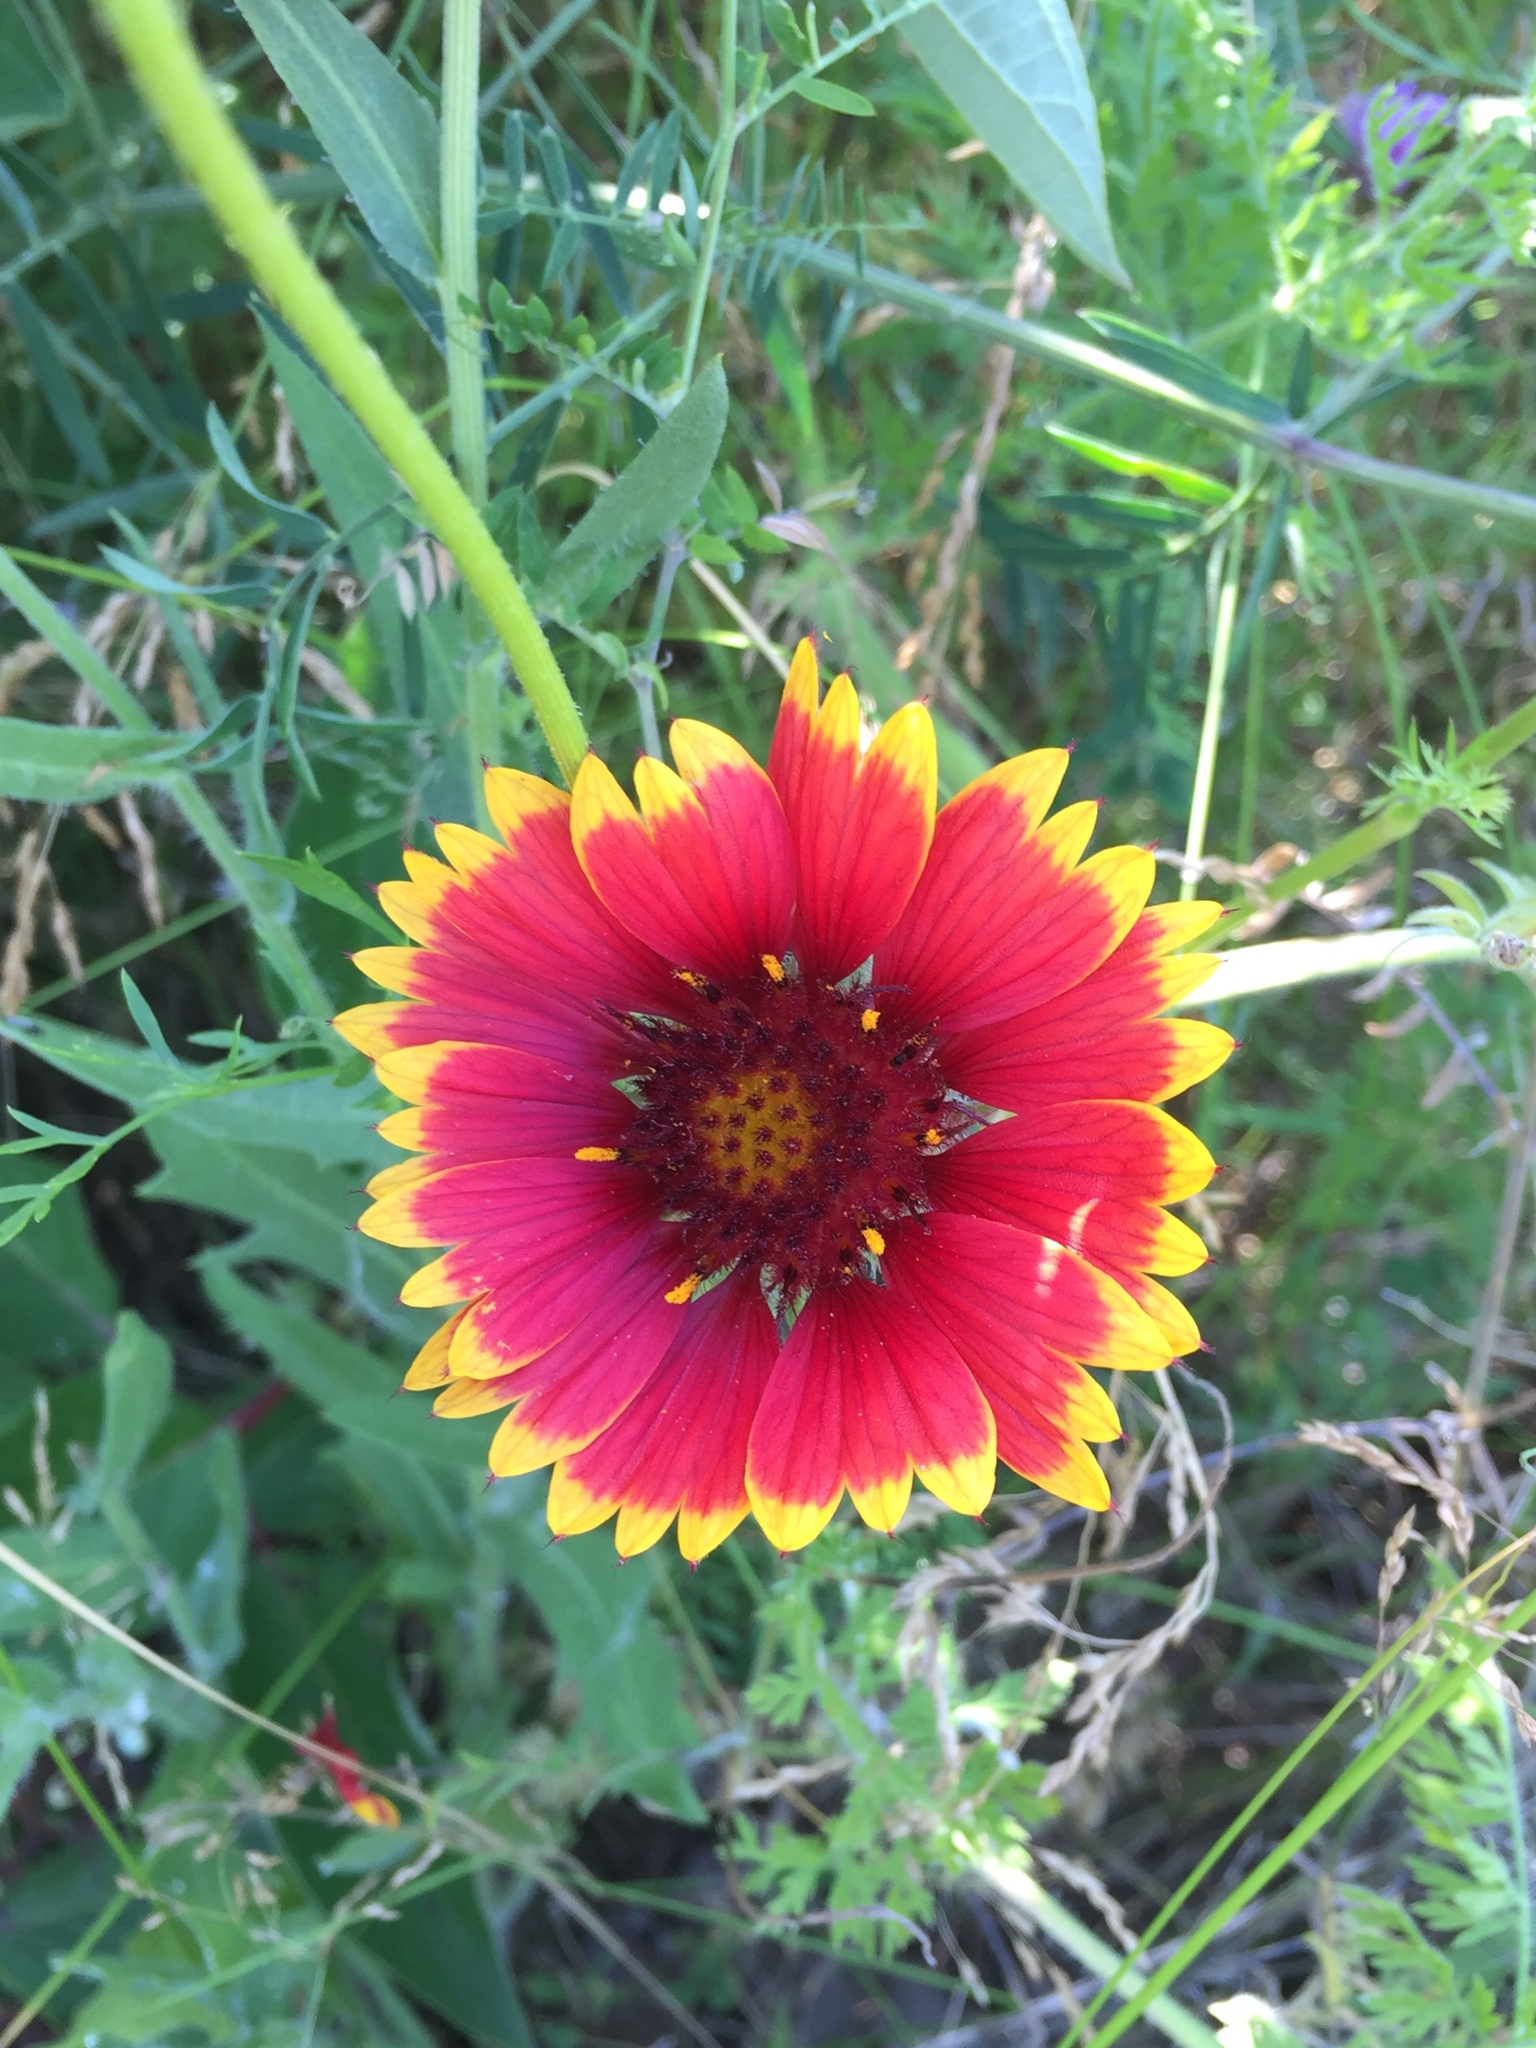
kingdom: Plantae
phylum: Tracheophyta
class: Magnoliopsida
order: Asterales
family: Asteraceae
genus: Gaillardia
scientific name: Gaillardia pulchella
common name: Firewheel
